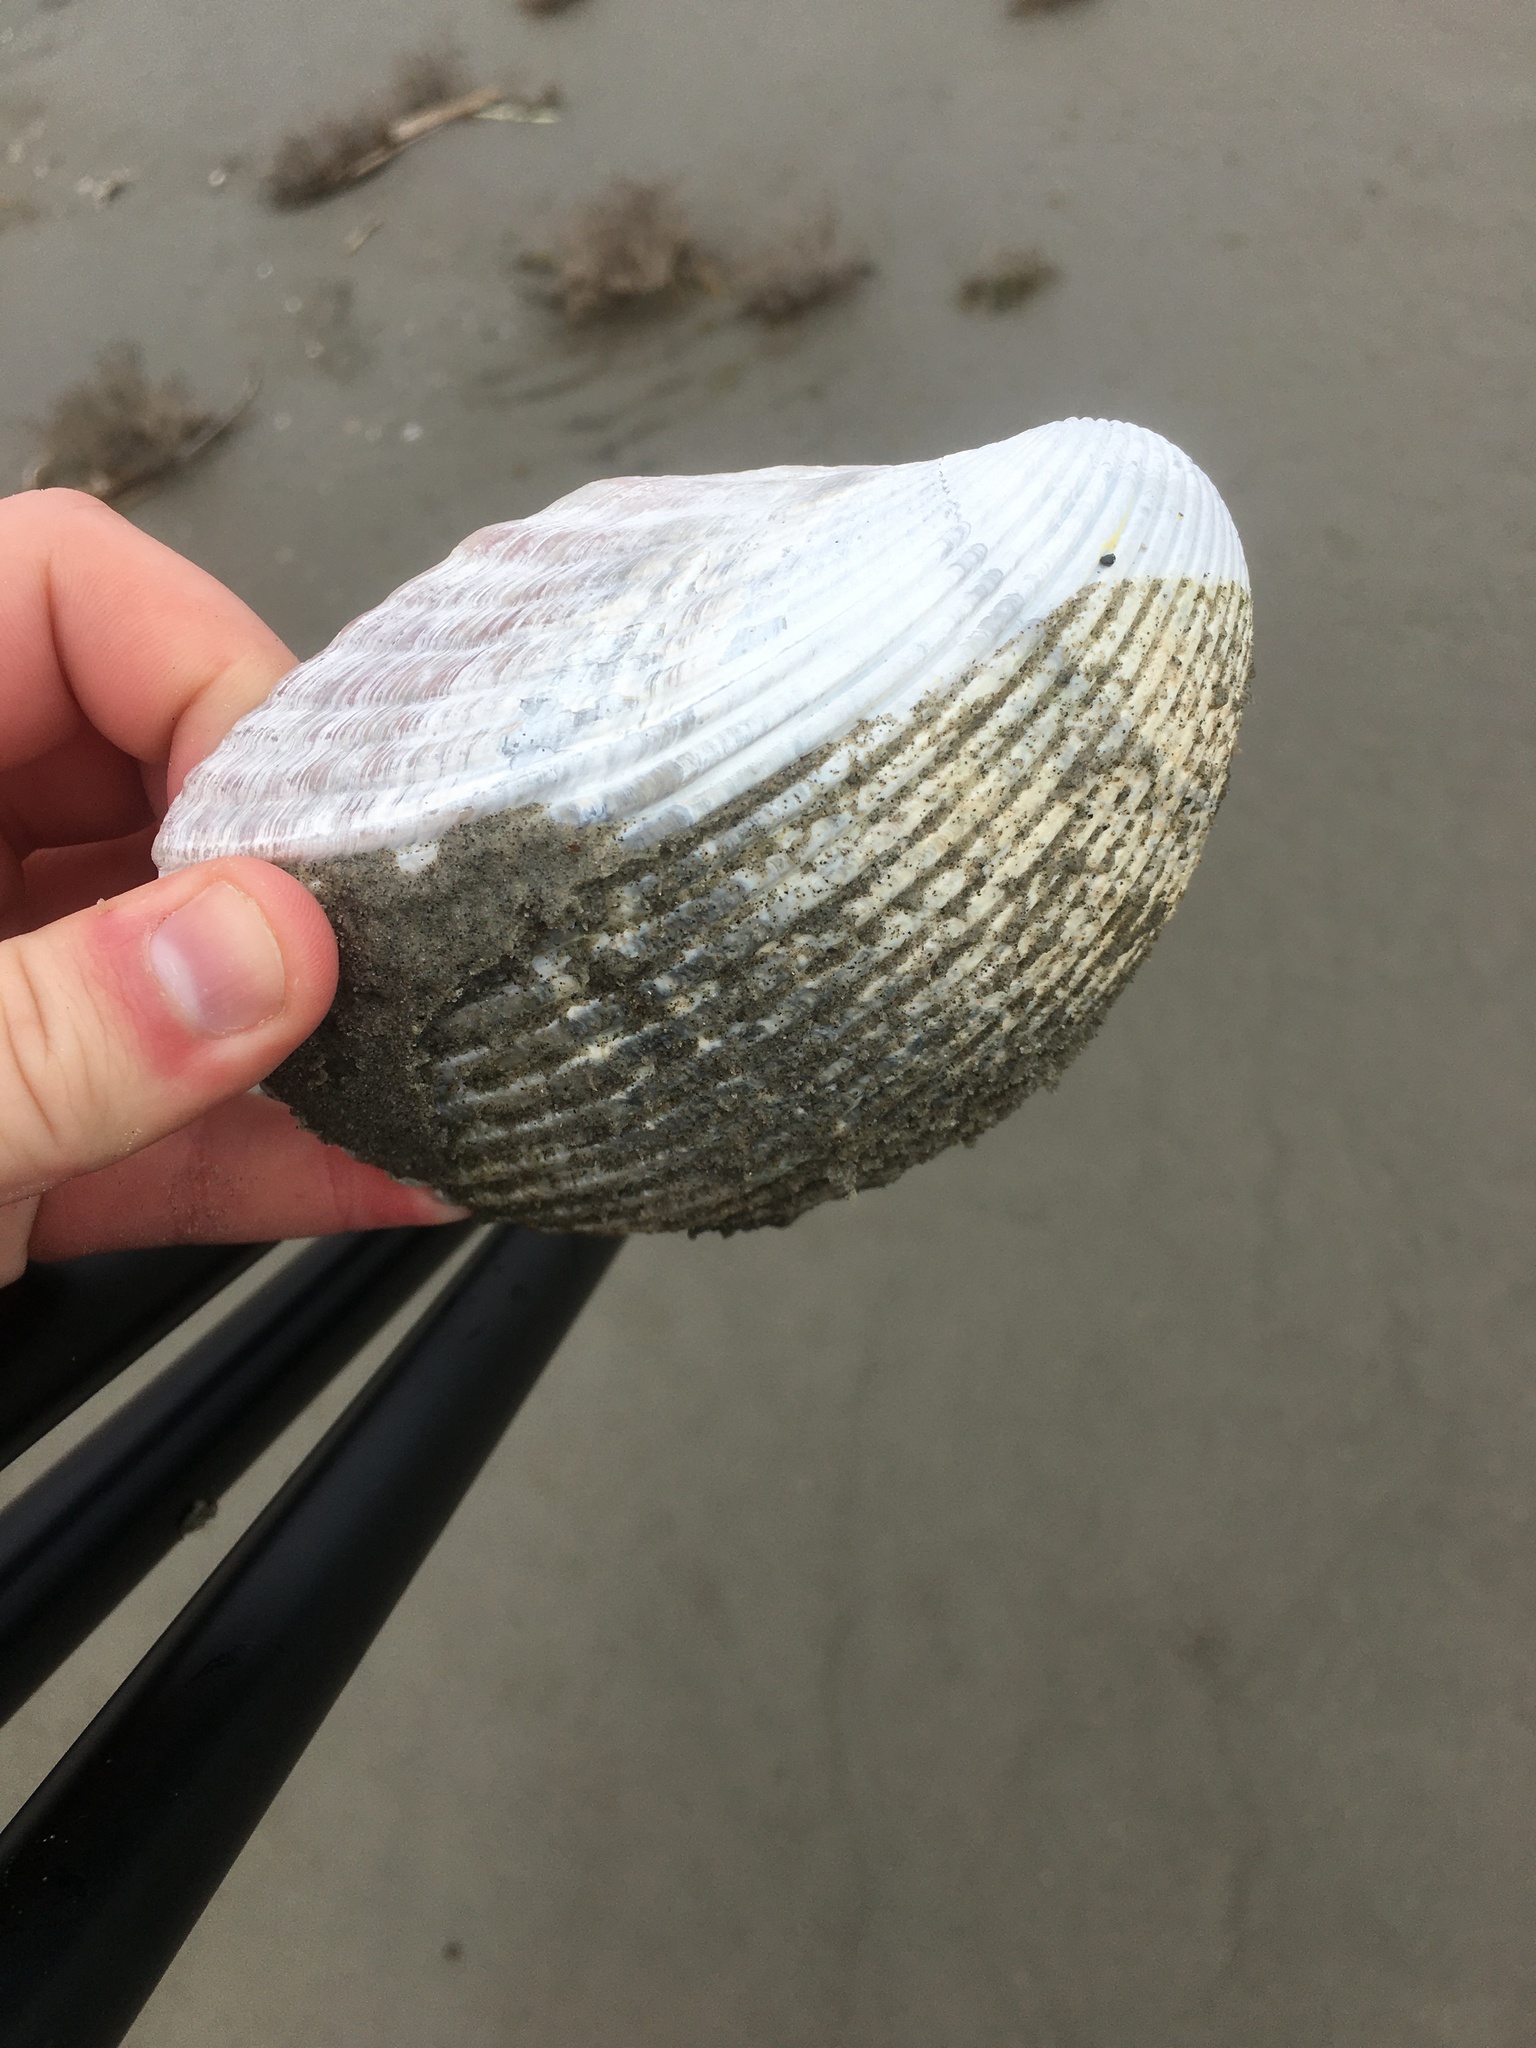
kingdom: Animalia
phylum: Mollusca
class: Bivalvia
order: Cardiida
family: Cardiidae
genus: Dinocardium
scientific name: Dinocardium robustum
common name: Atlantic giant cockle
